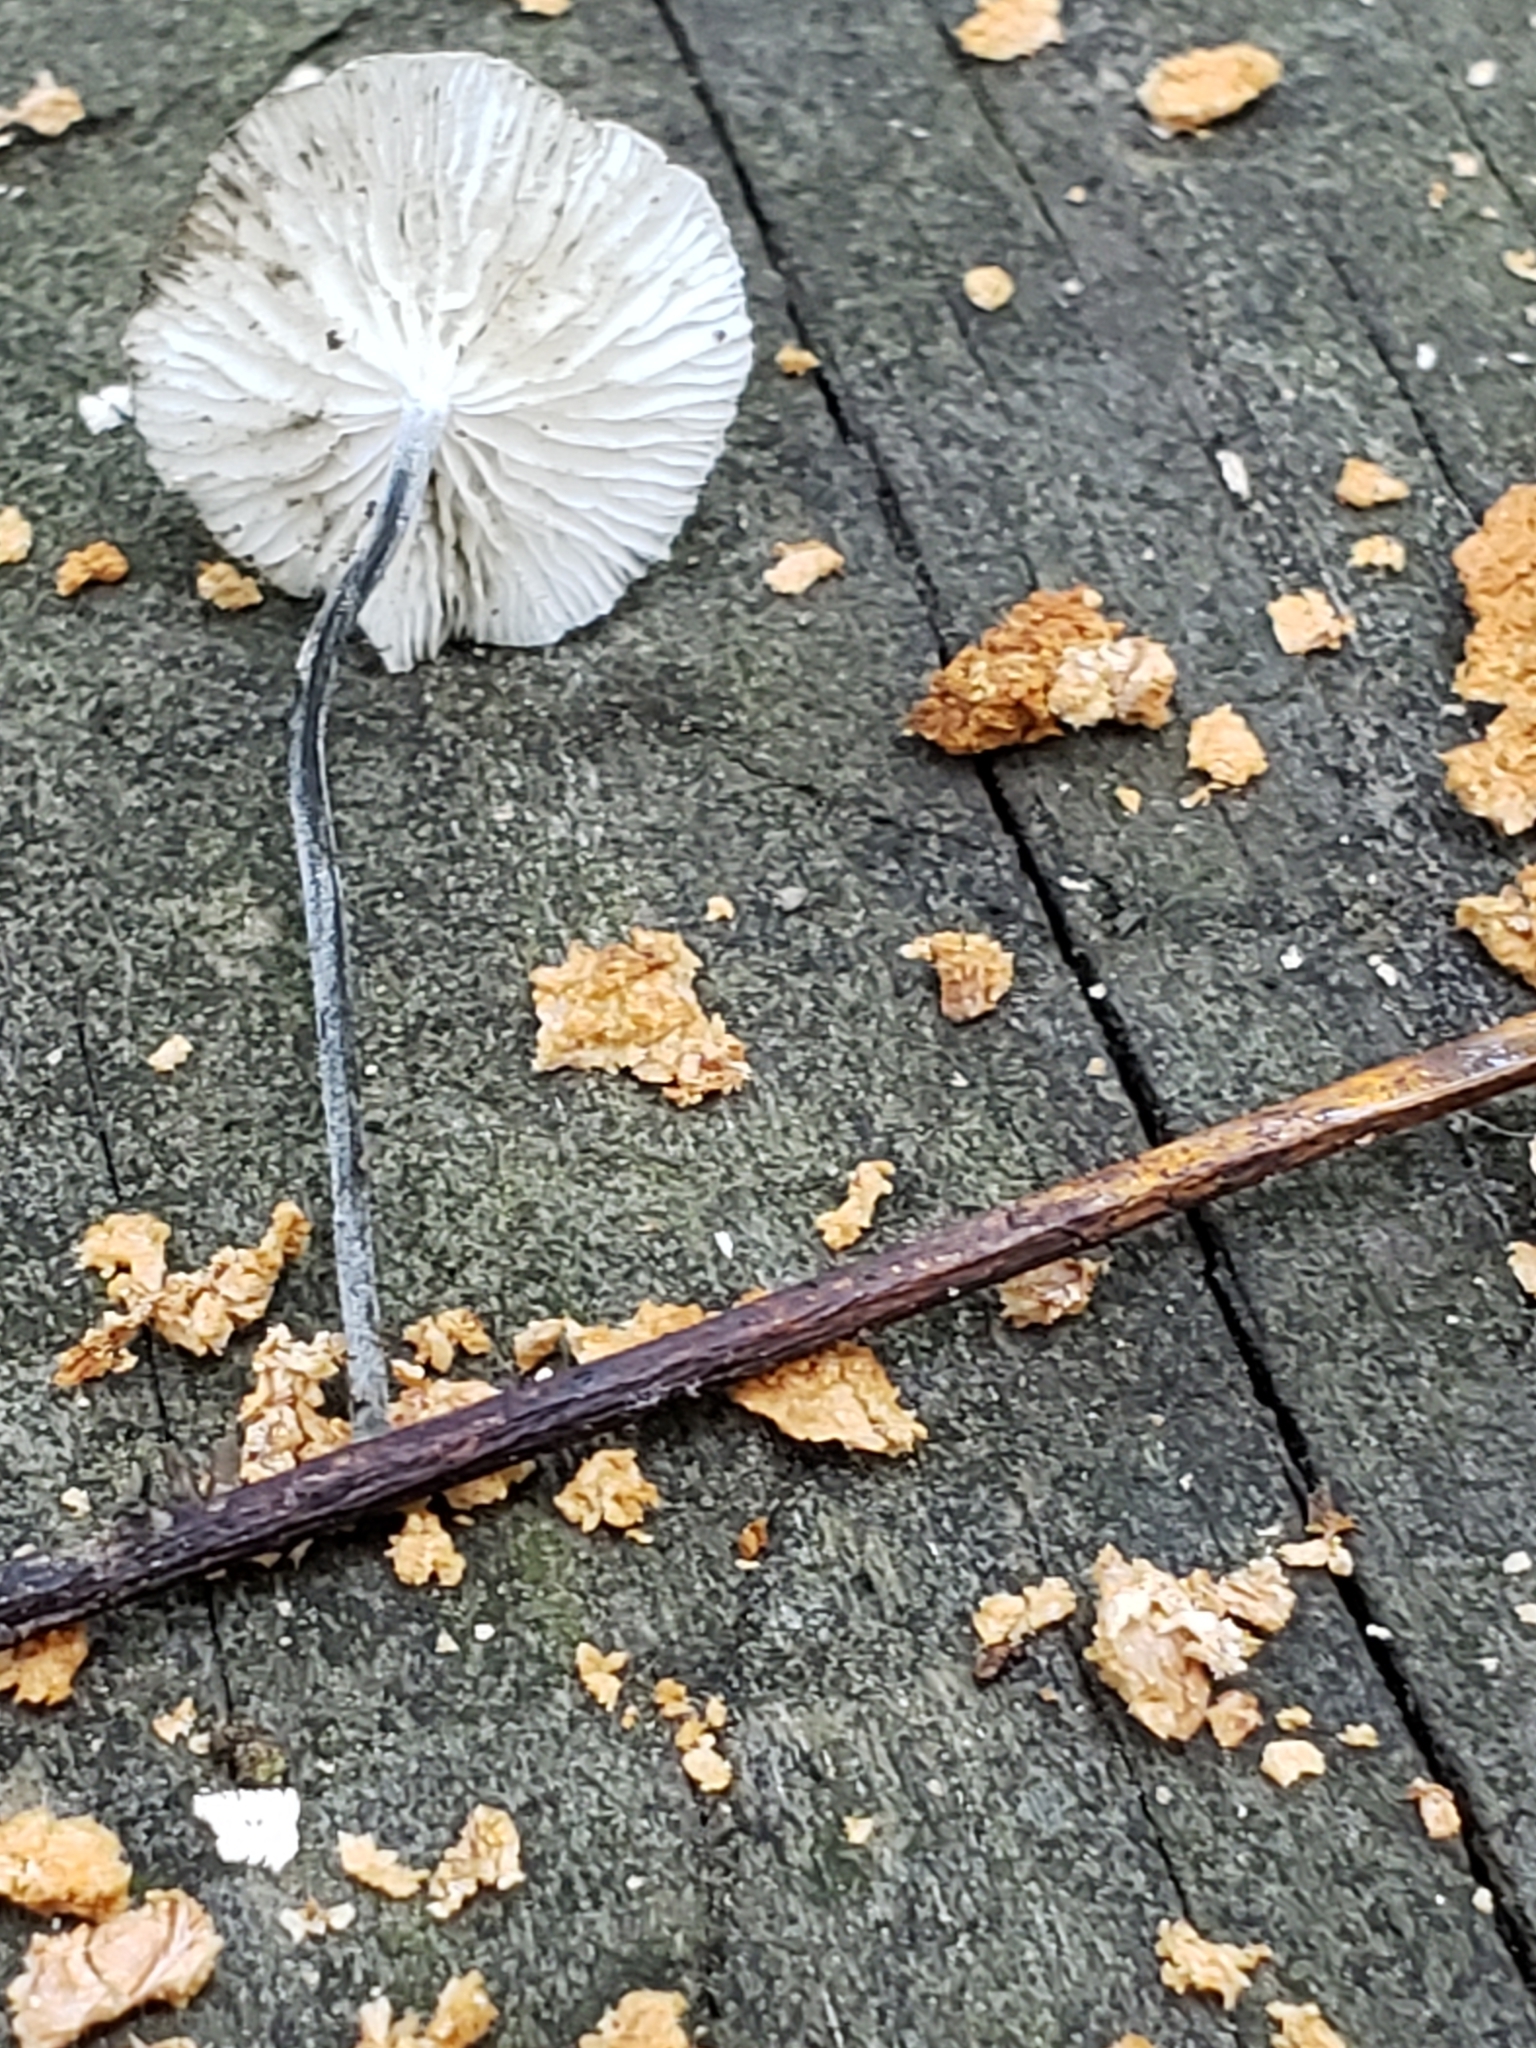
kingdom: Fungi
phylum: Basidiomycota
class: Agaricomycetes
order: Agaricales
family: Marasmiaceae
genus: Tetrapyrgos
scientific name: Tetrapyrgos nigripes
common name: Black-stalked marasmius
